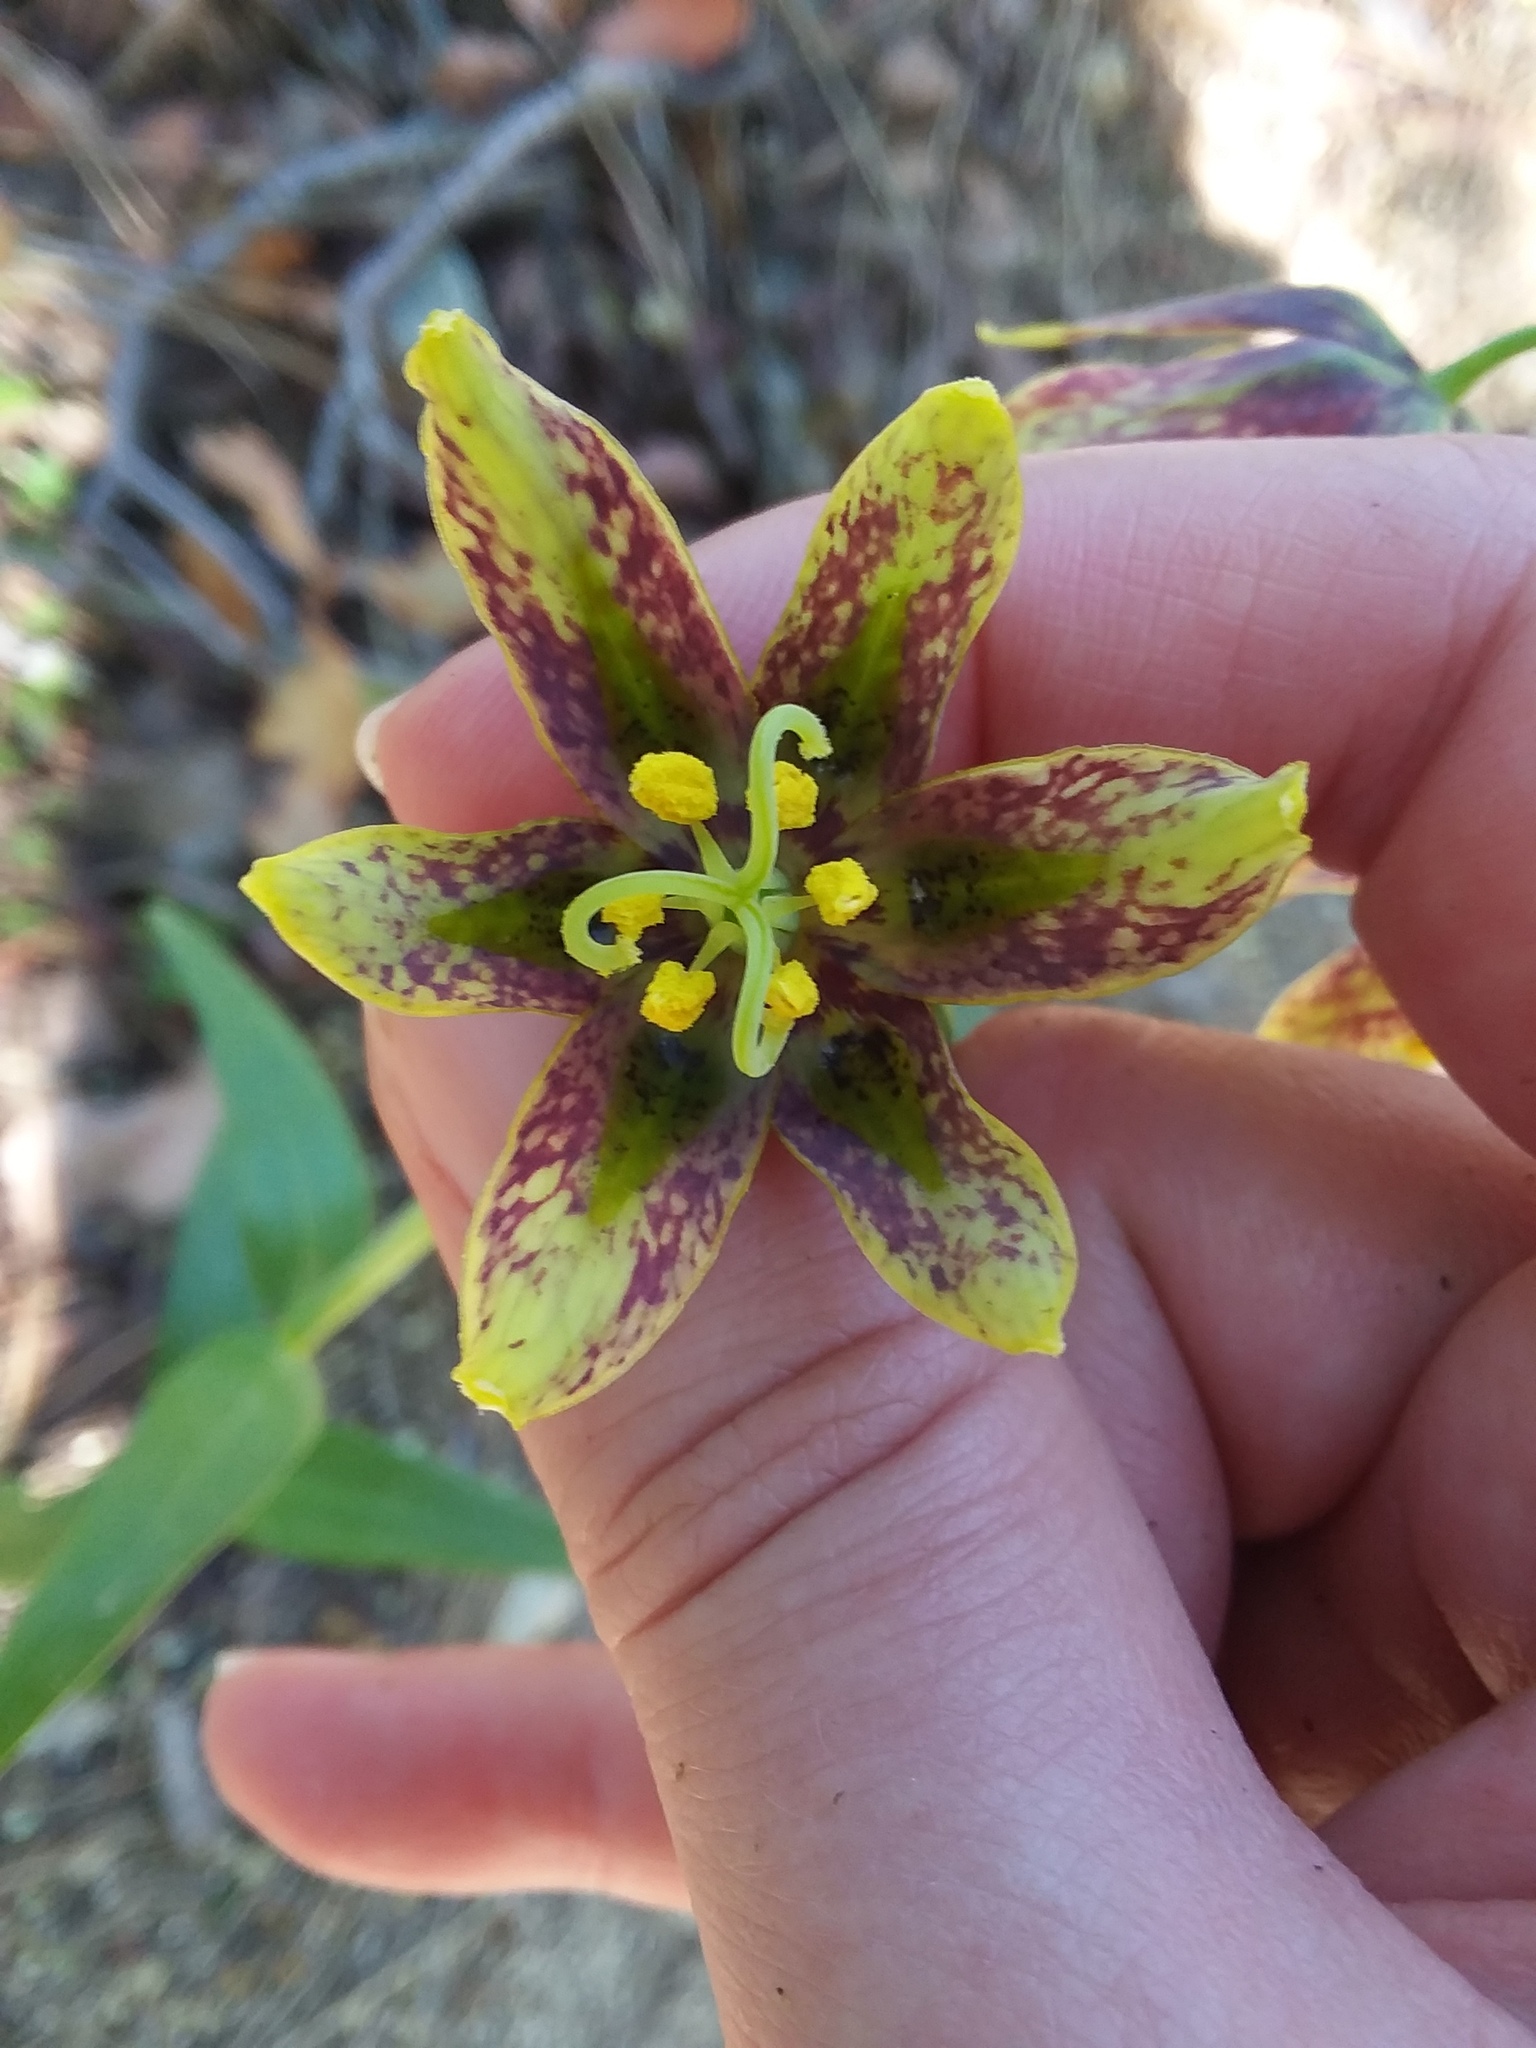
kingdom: Plantae
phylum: Tracheophyta
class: Liliopsida
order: Liliales
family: Liliaceae
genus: Fritillaria
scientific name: Fritillaria affinis
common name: Ojai fritillary
